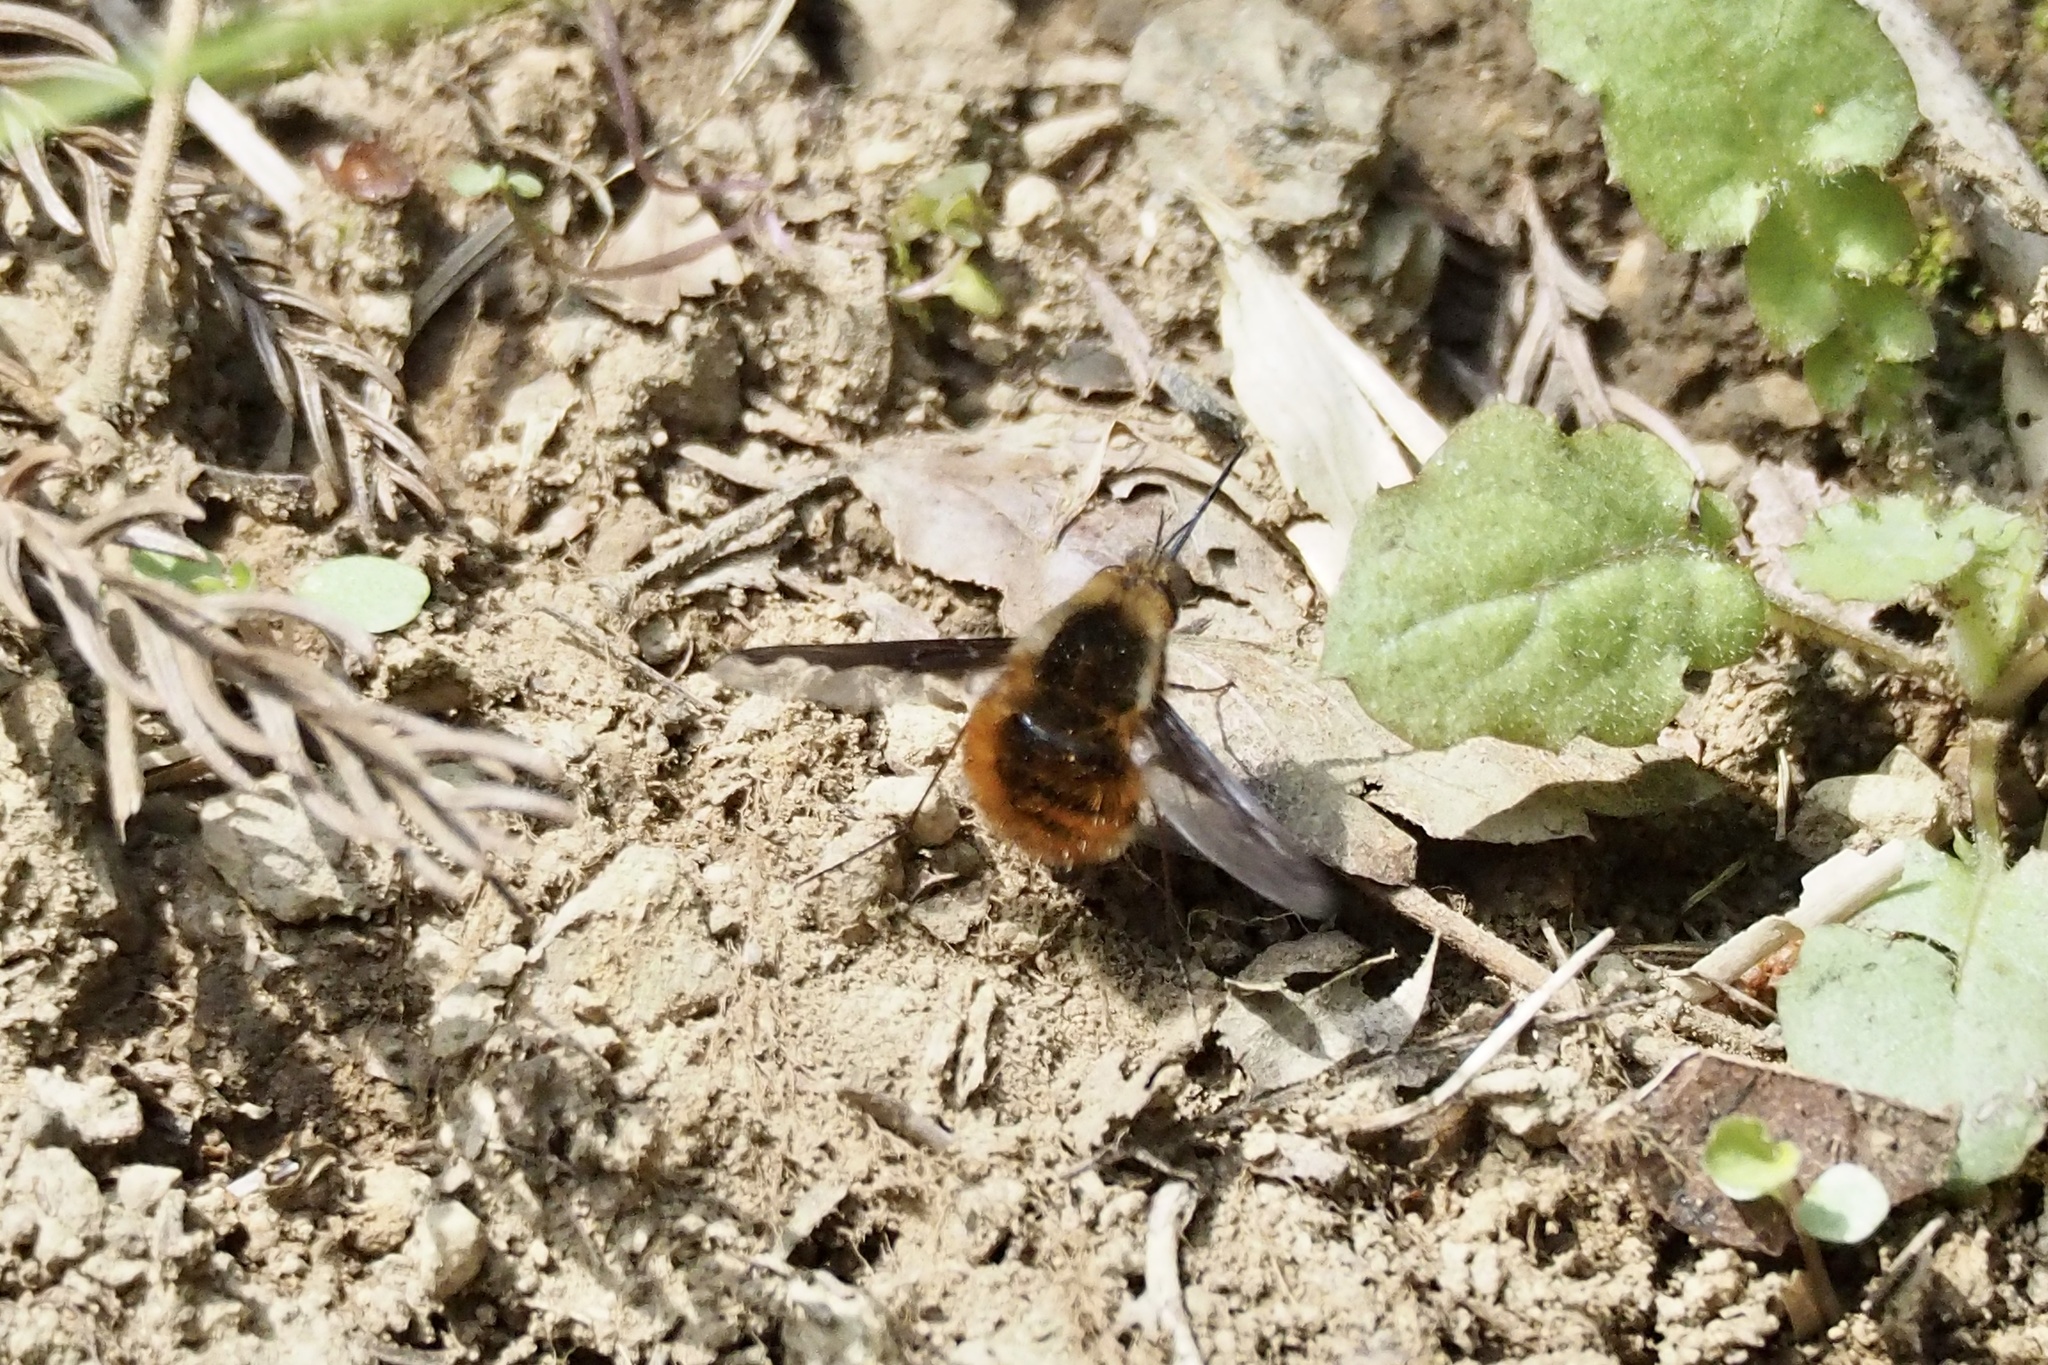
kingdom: Animalia
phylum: Arthropoda
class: Insecta
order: Diptera
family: Bombyliidae
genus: Bombylius
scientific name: Bombylius major
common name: Bee fly
